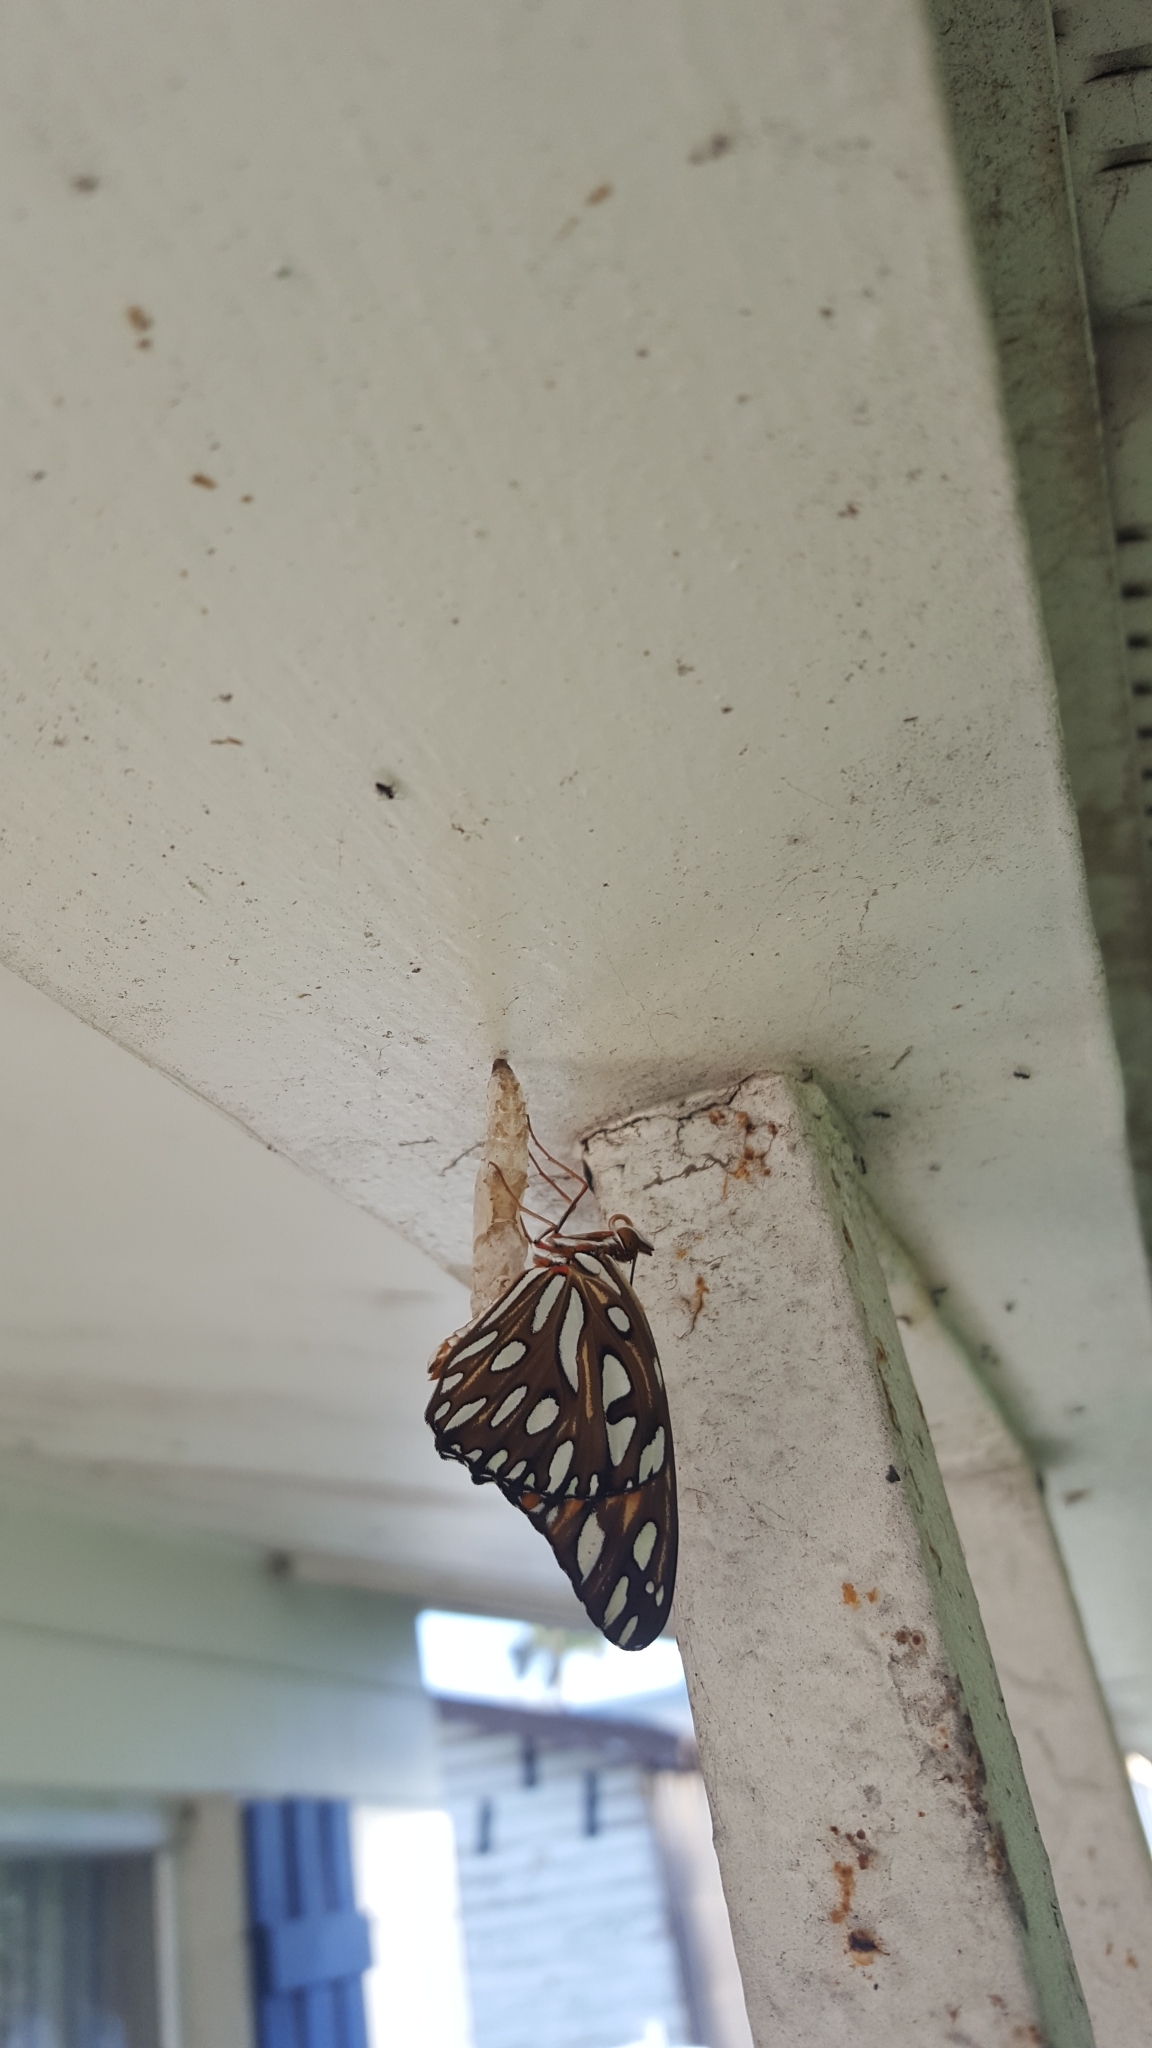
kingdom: Animalia
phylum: Arthropoda
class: Insecta
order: Lepidoptera
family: Nymphalidae
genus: Dione
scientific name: Dione vanillae
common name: Gulf fritillary
